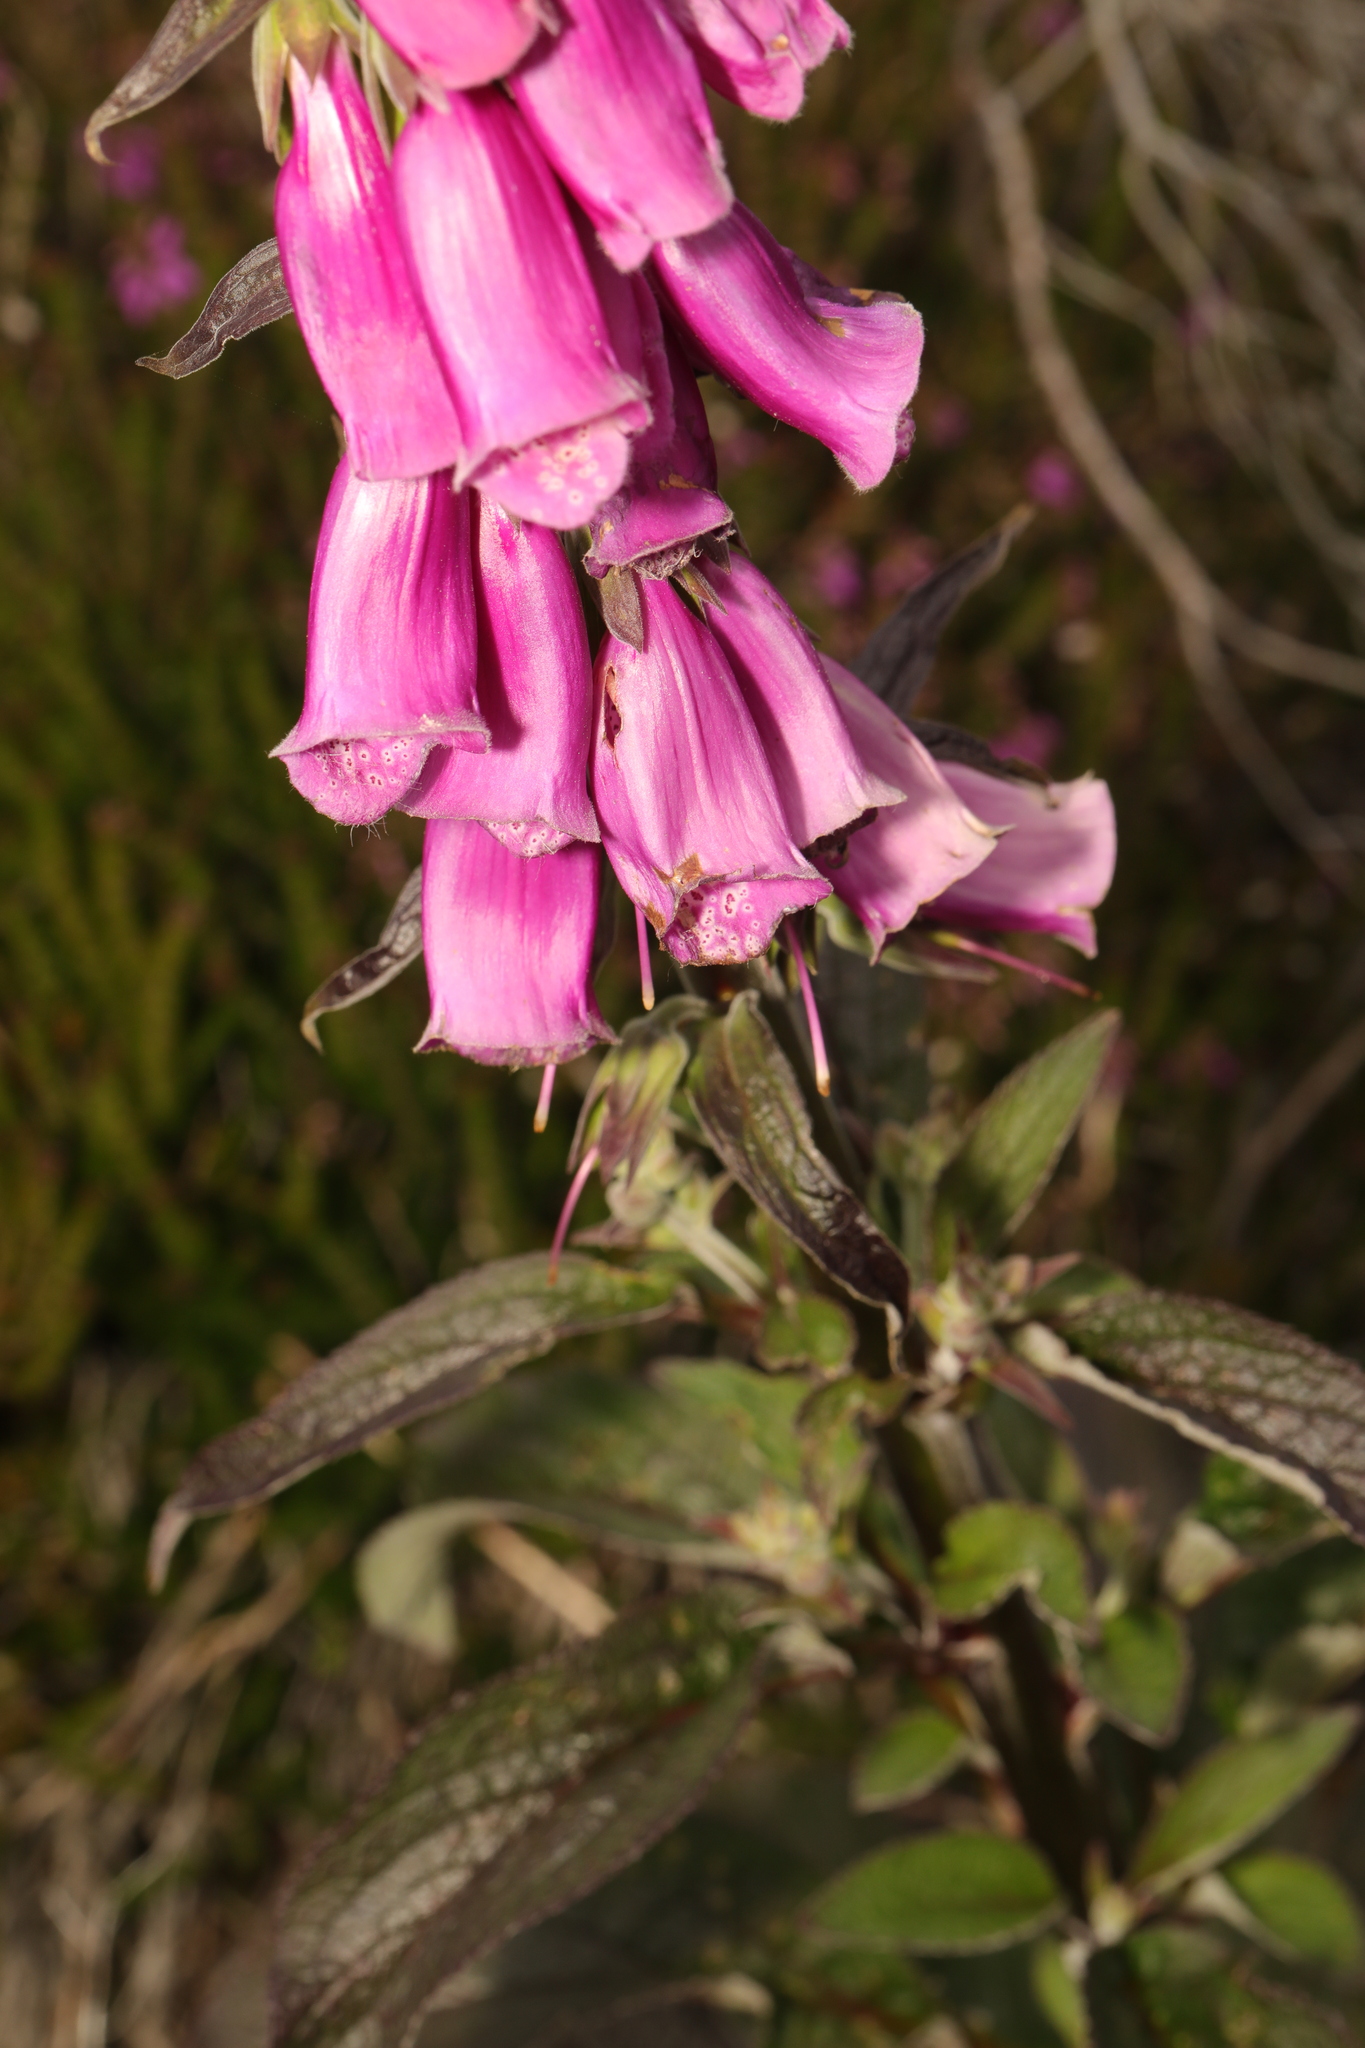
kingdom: Plantae
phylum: Tracheophyta
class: Magnoliopsida
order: Lamiales
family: Plantaginaceae
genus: Digitalis
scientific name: Digitalis purpurea
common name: Foxglove
